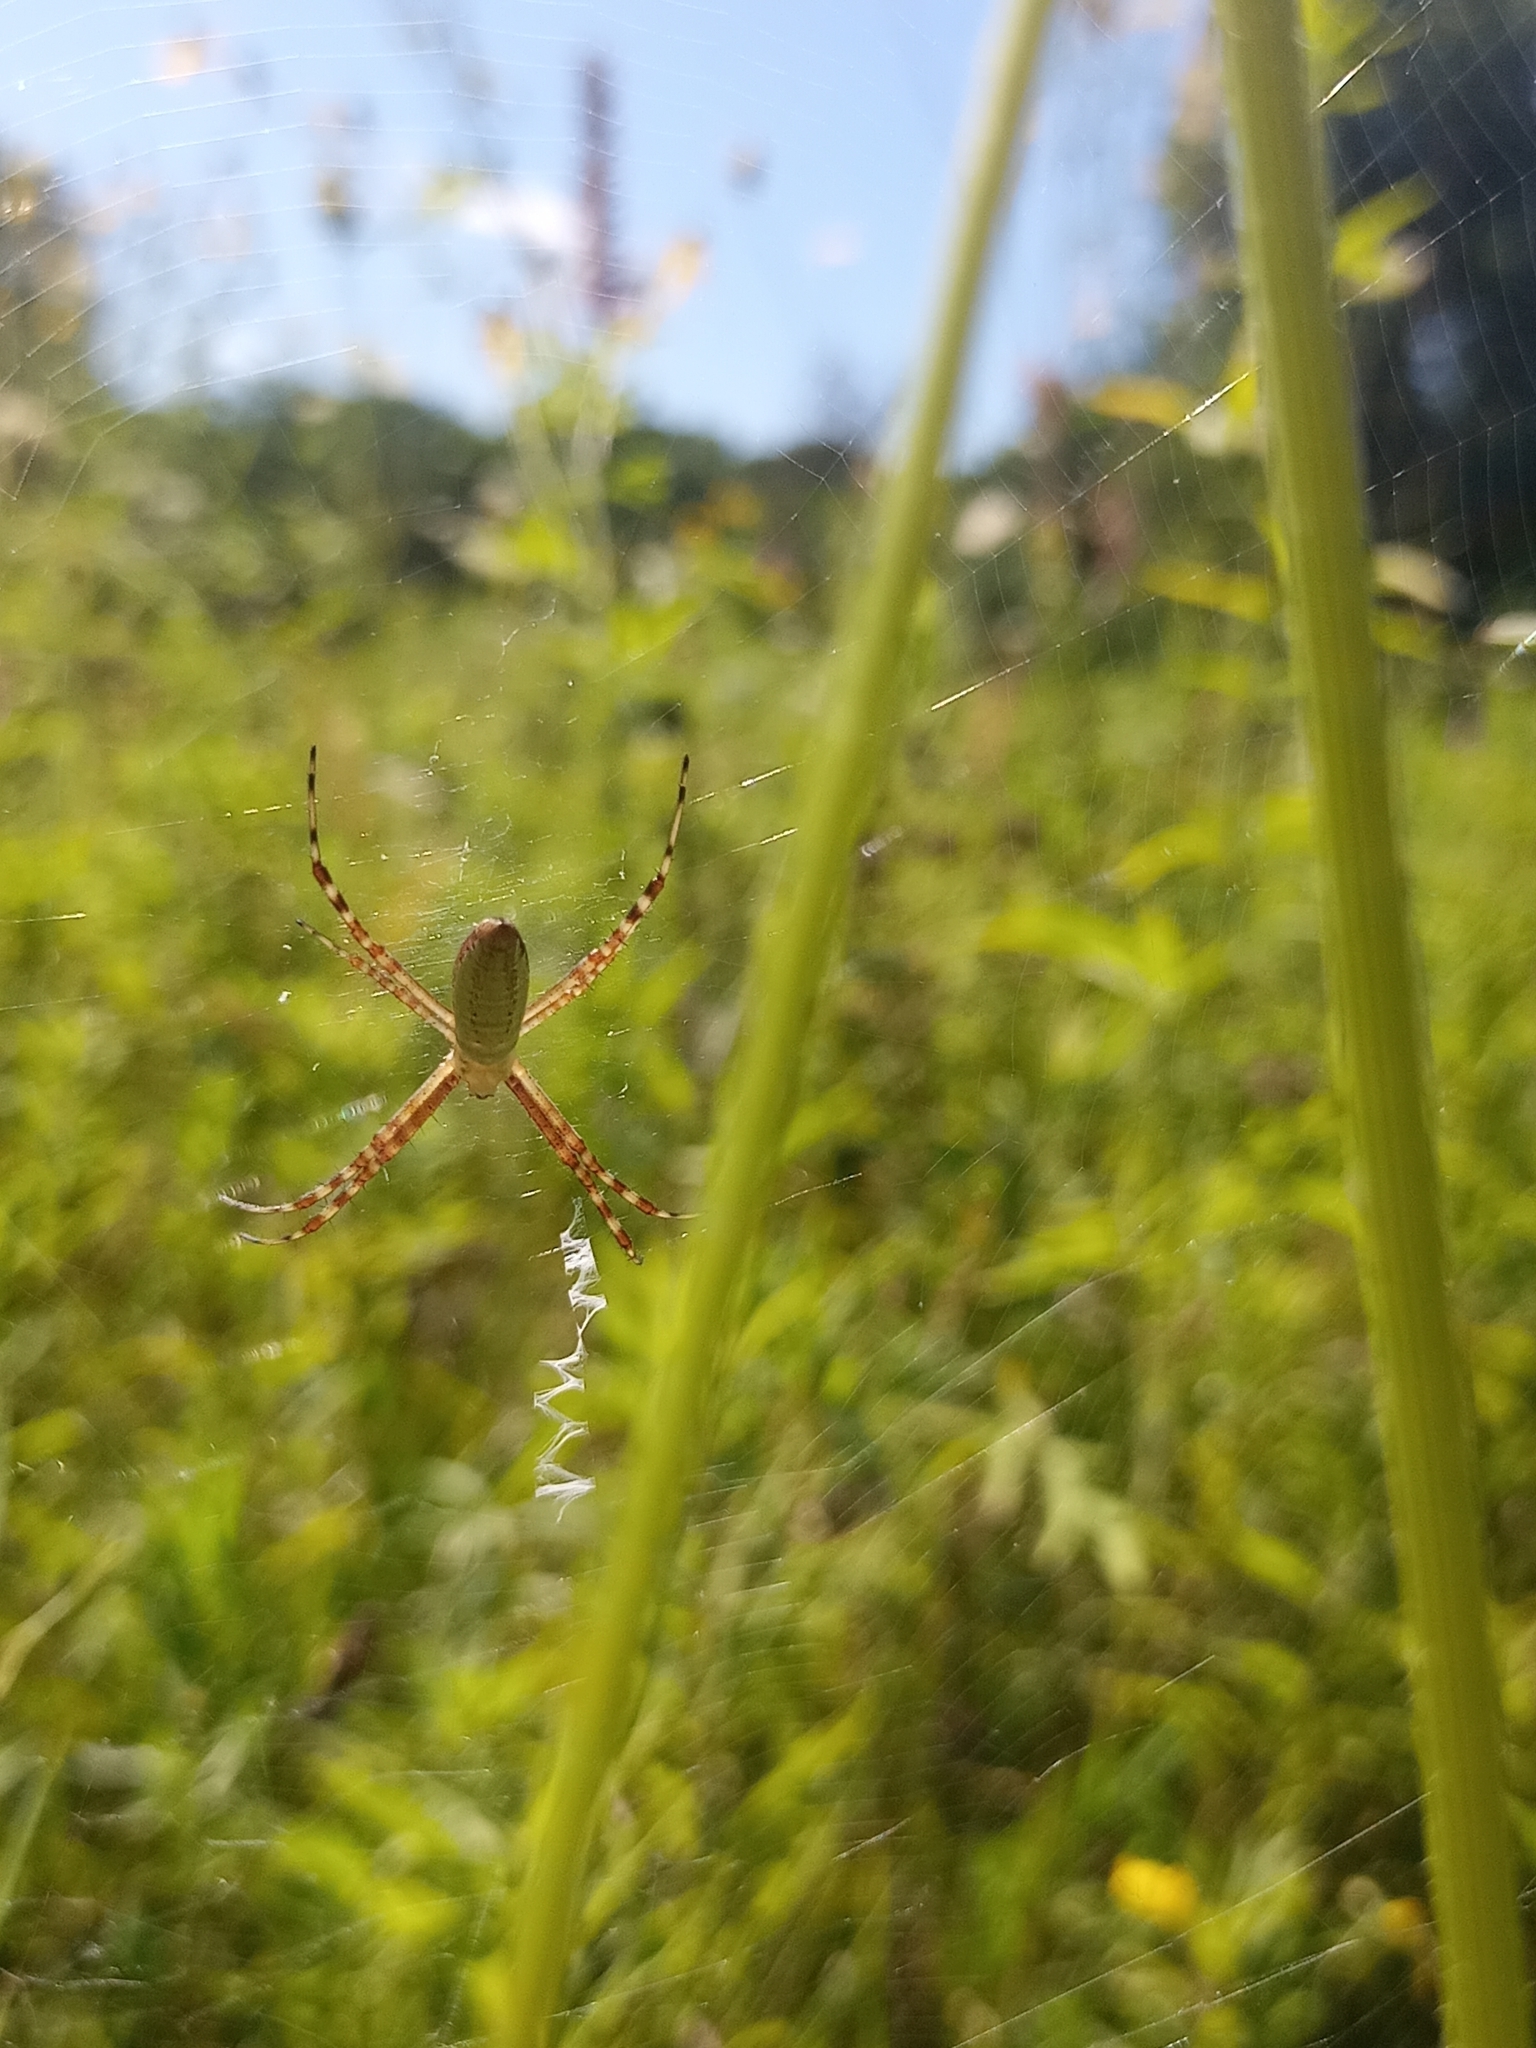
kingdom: Animalia
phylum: Arthropoda
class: Arachnida
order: Araneae
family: Araneidae
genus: Argiope
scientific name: Argiope trifasciata
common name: Banded garden spider
